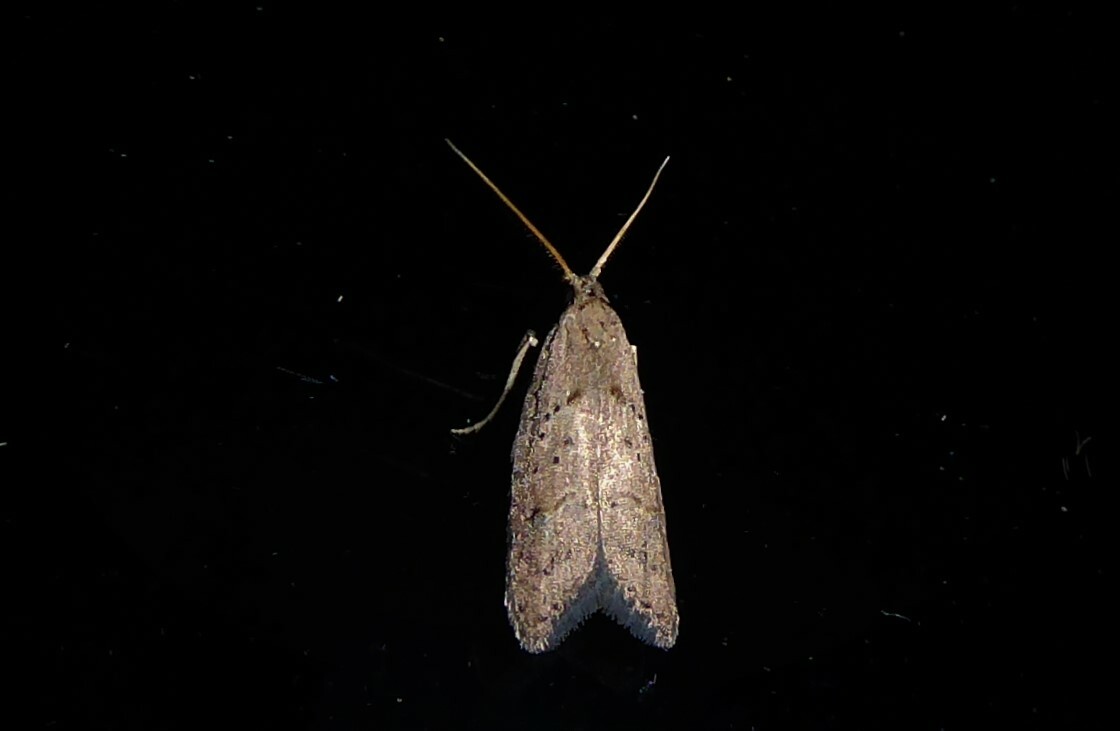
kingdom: Animalia
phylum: Arthropoda
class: Insecta
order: Lepidoptera
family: Carposinidae
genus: Carposina
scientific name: Carposina rubophaga
